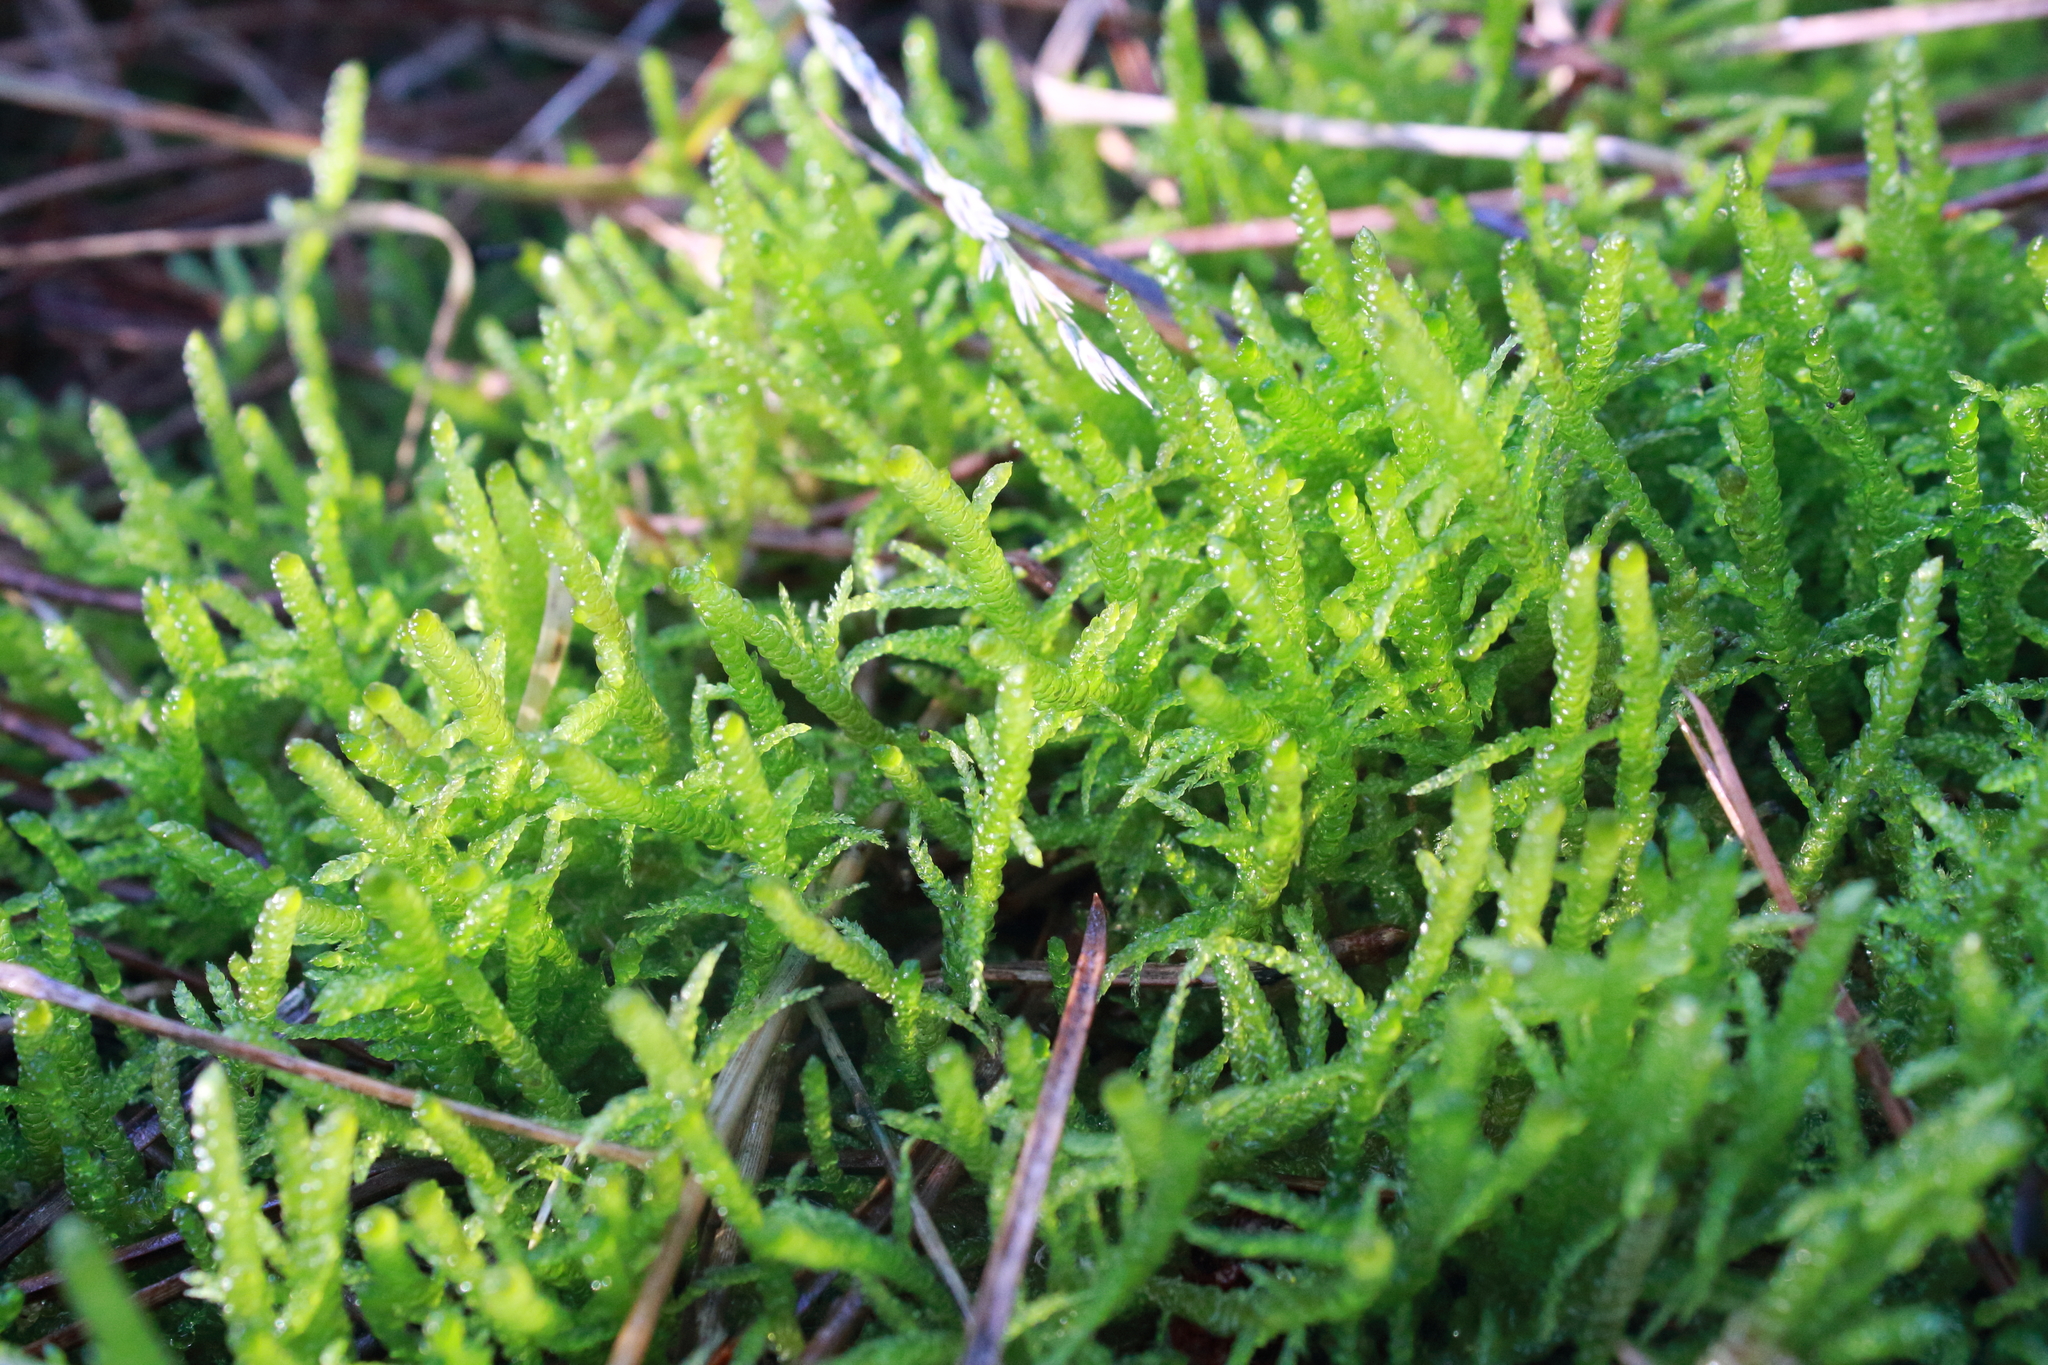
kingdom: Plantae
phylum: Bryophyta
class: Bryopsida
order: Hypnales
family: Brachytheciaceae
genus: Pseudoscleropodium
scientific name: Pseudoscleropodium purum
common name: Neat feather-moss
